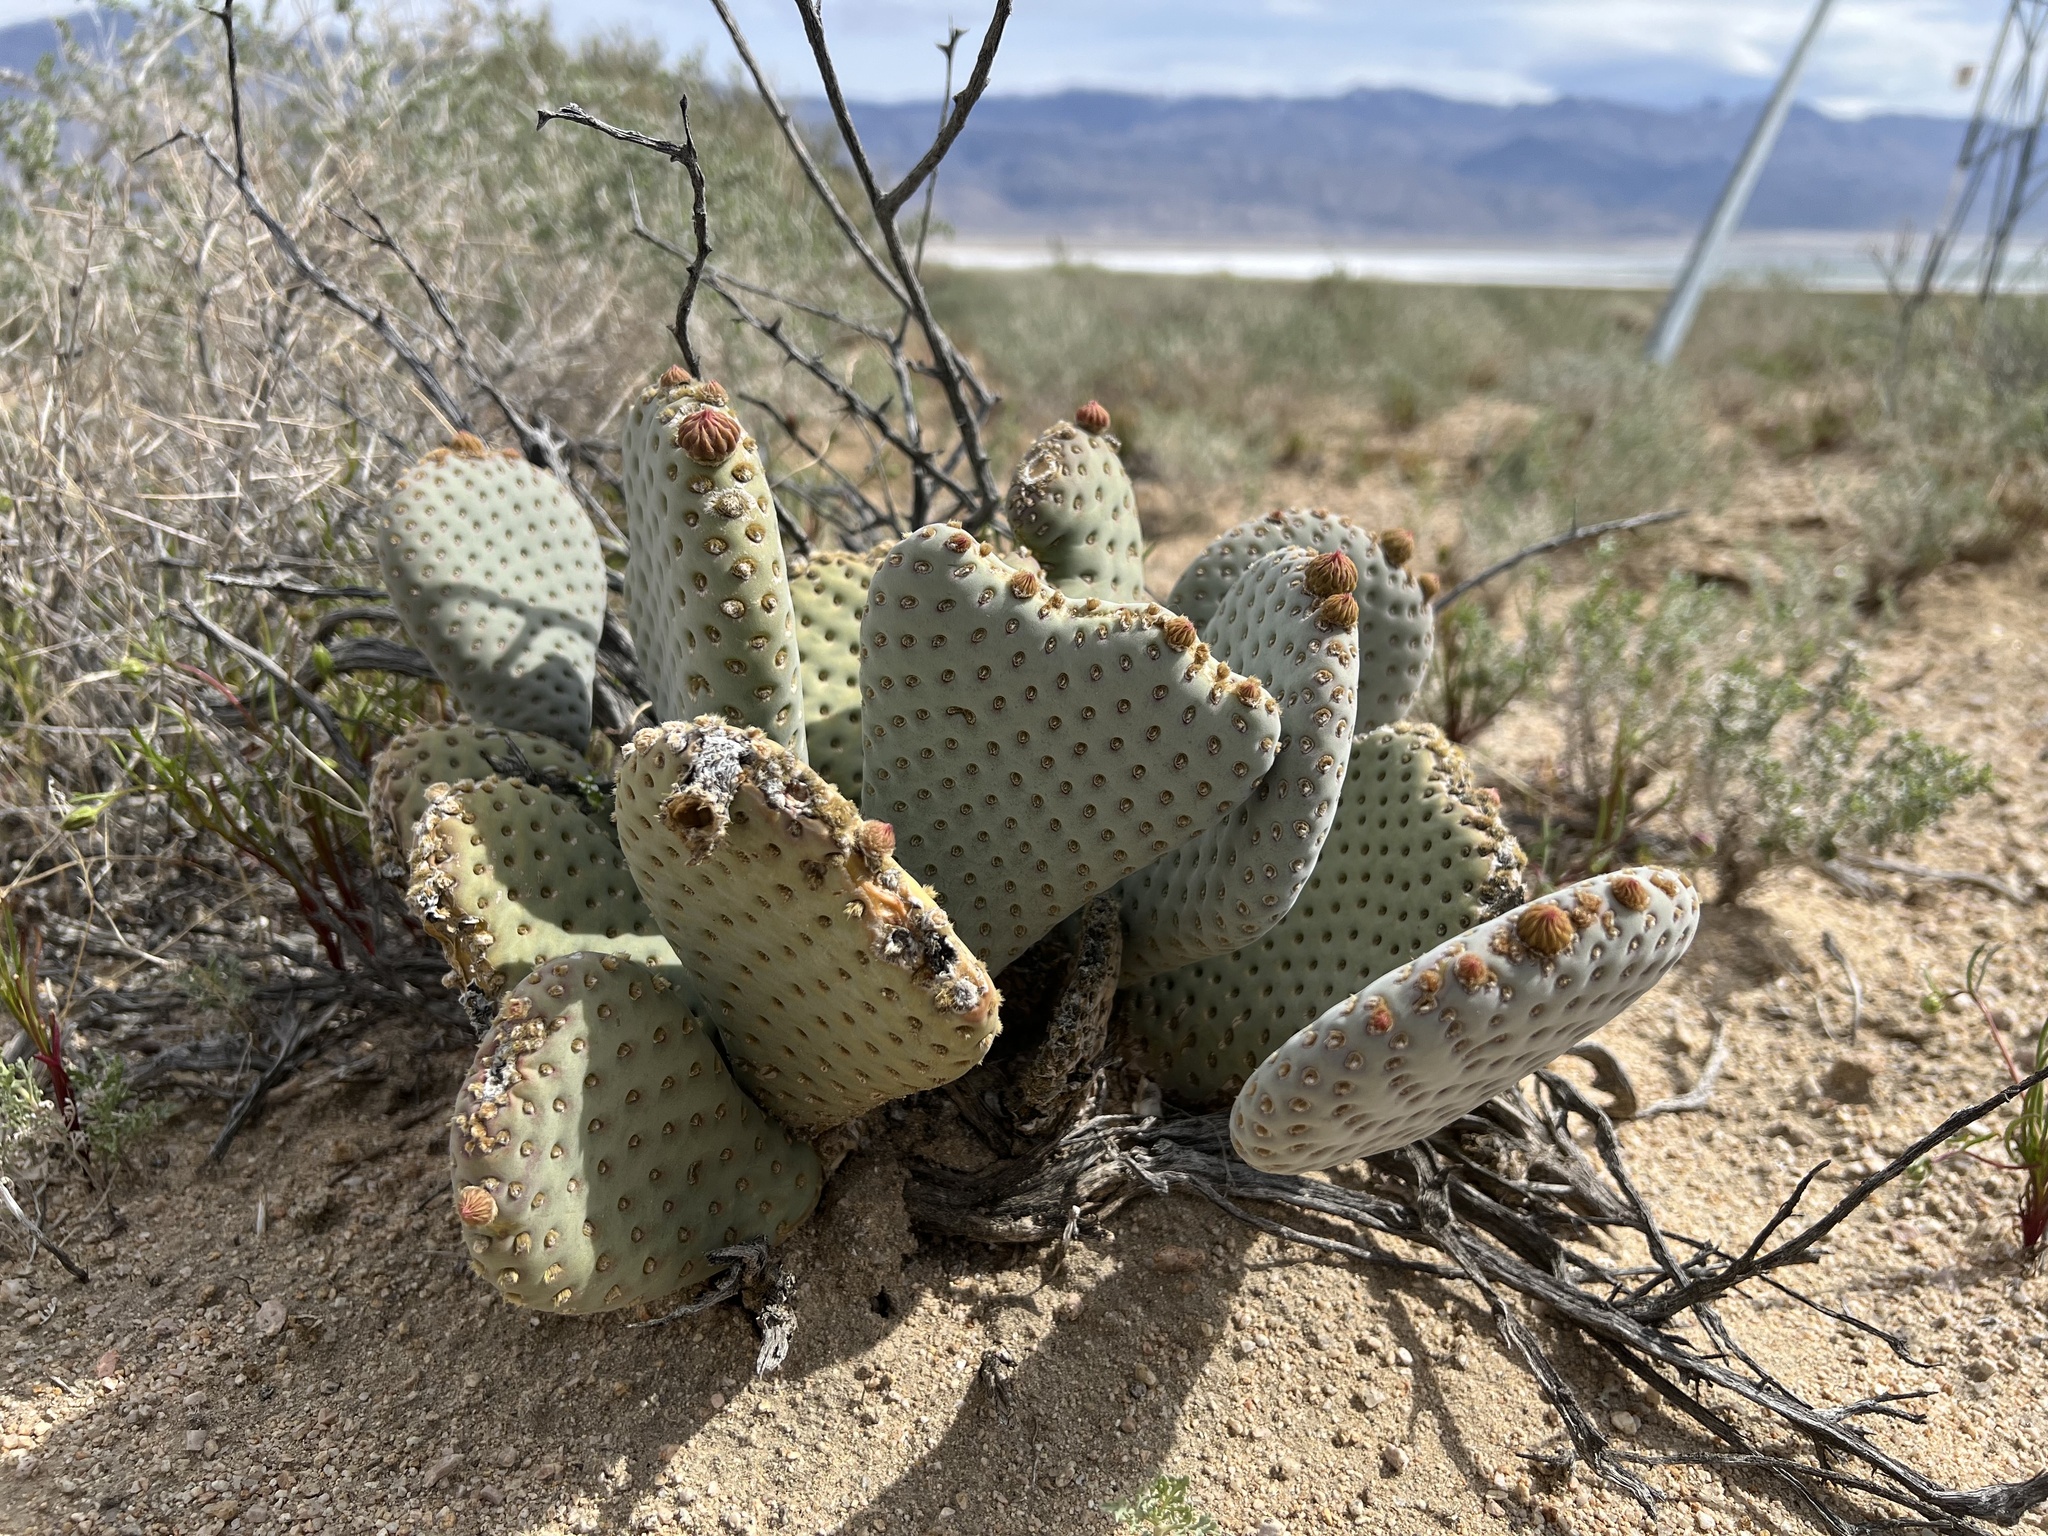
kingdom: Plantae
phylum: Tracheophyta
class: Magnoliopsida
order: Caryophyllales
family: Cactaceae
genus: Opuntia
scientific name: Opuntia basilaris
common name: Beavertail prickly-pear
